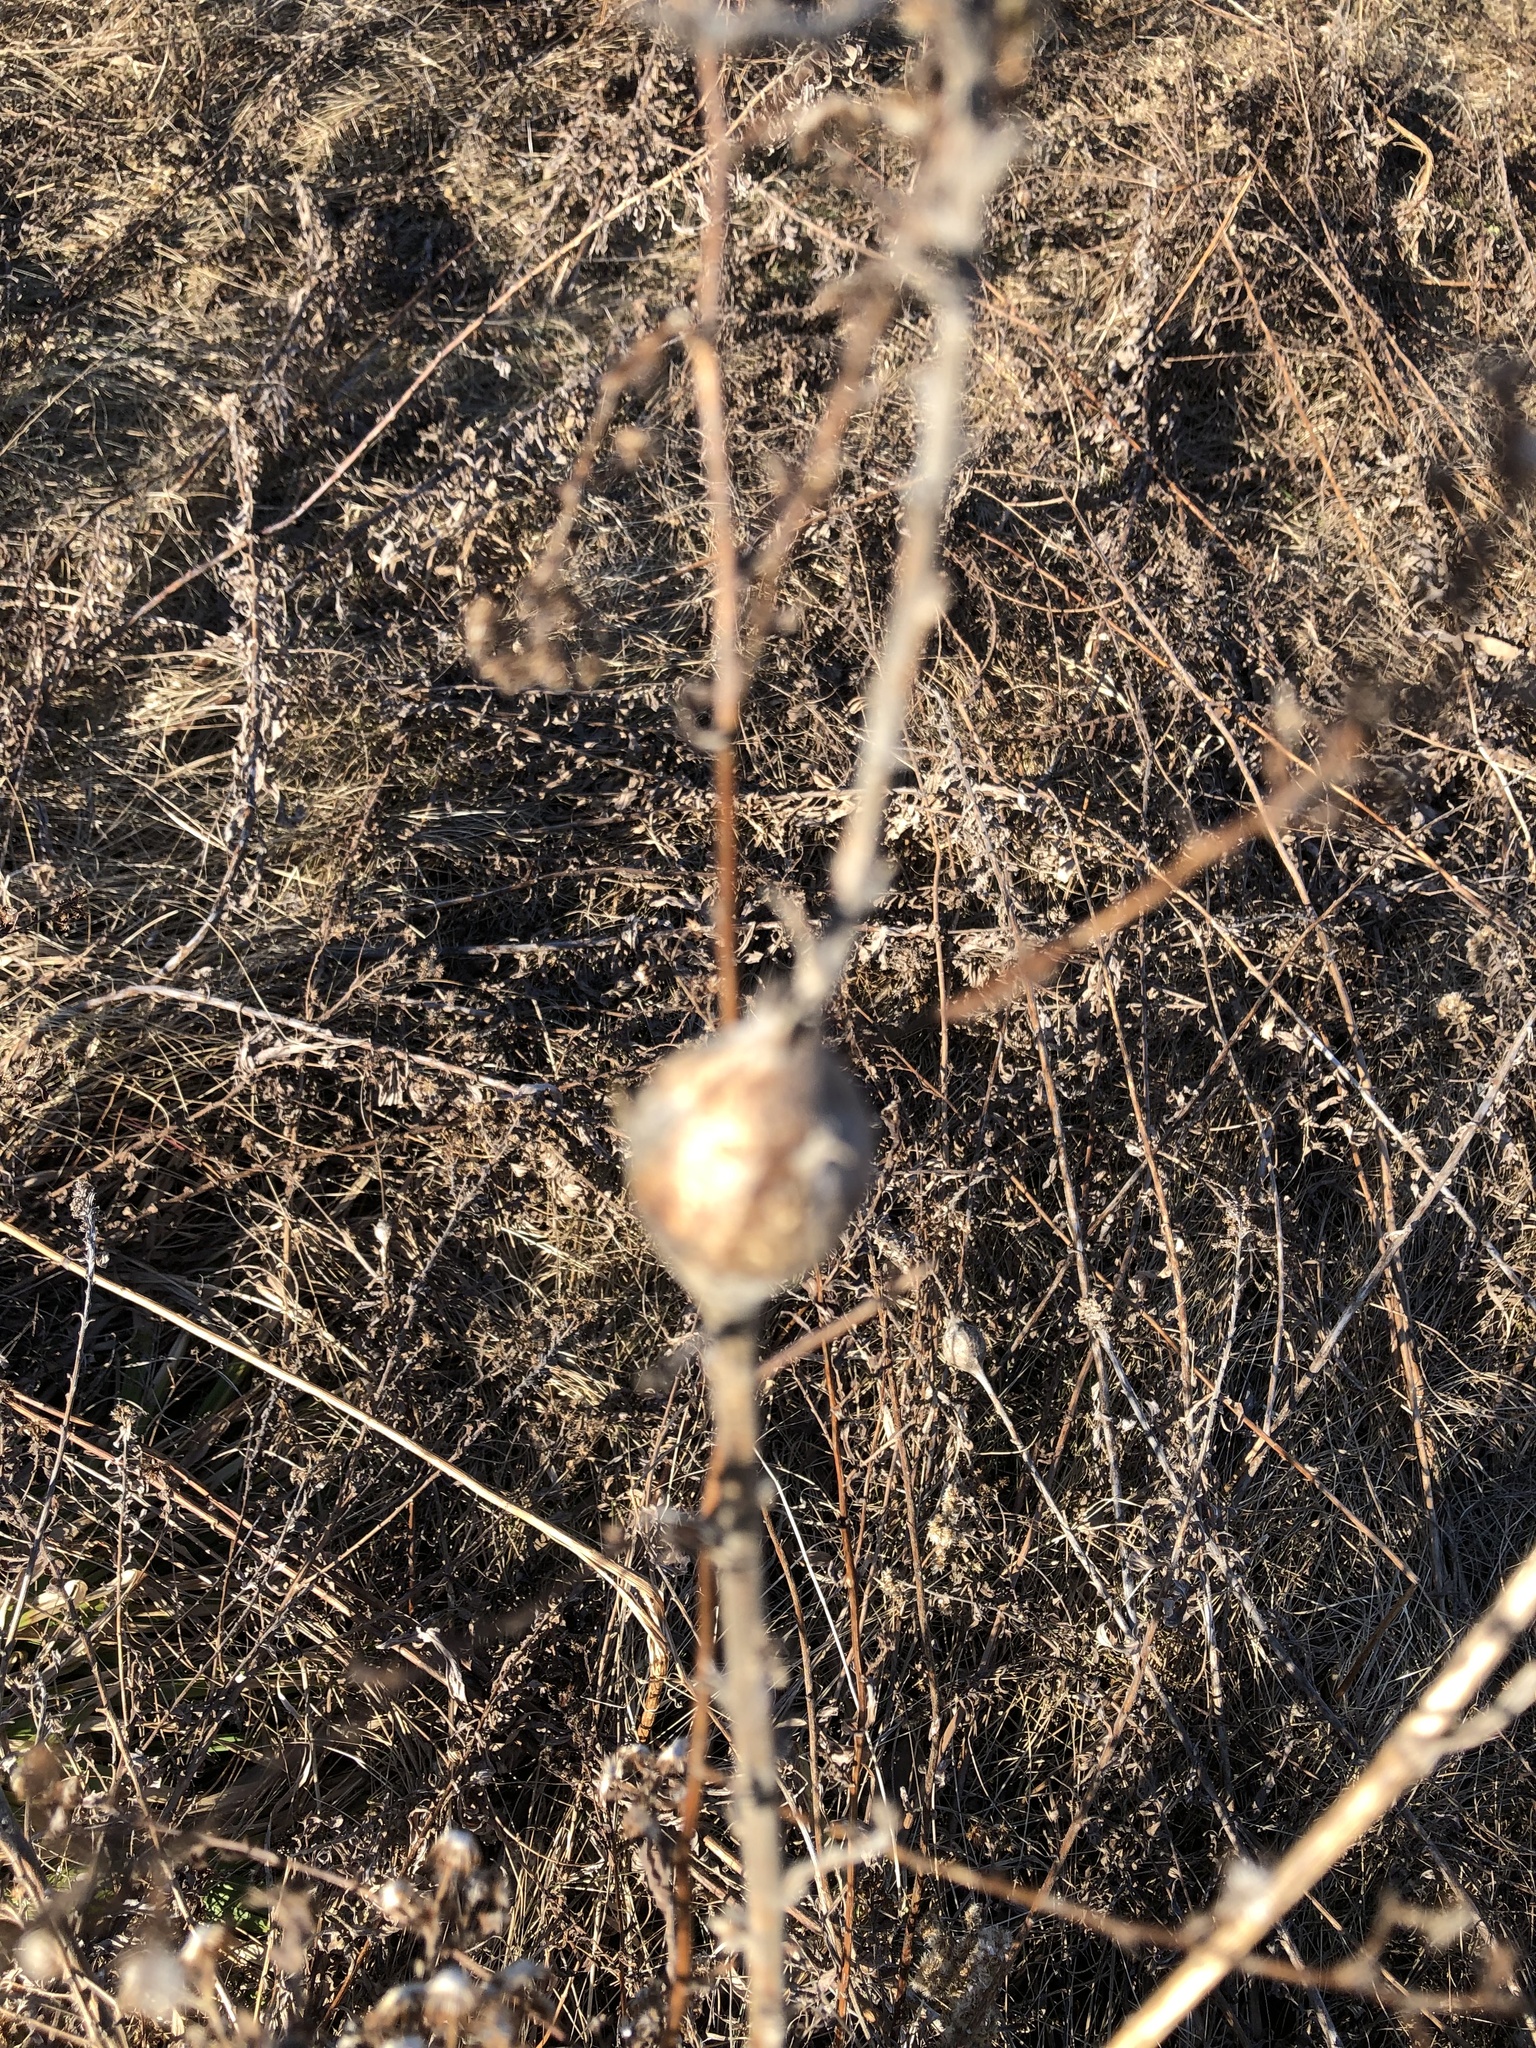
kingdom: Animalia
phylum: Arthropoda
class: Insecta
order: Diptera
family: Tephritidae
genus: Eurosta
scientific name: Eurosta solidaginis
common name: Goldenrod gall fly
